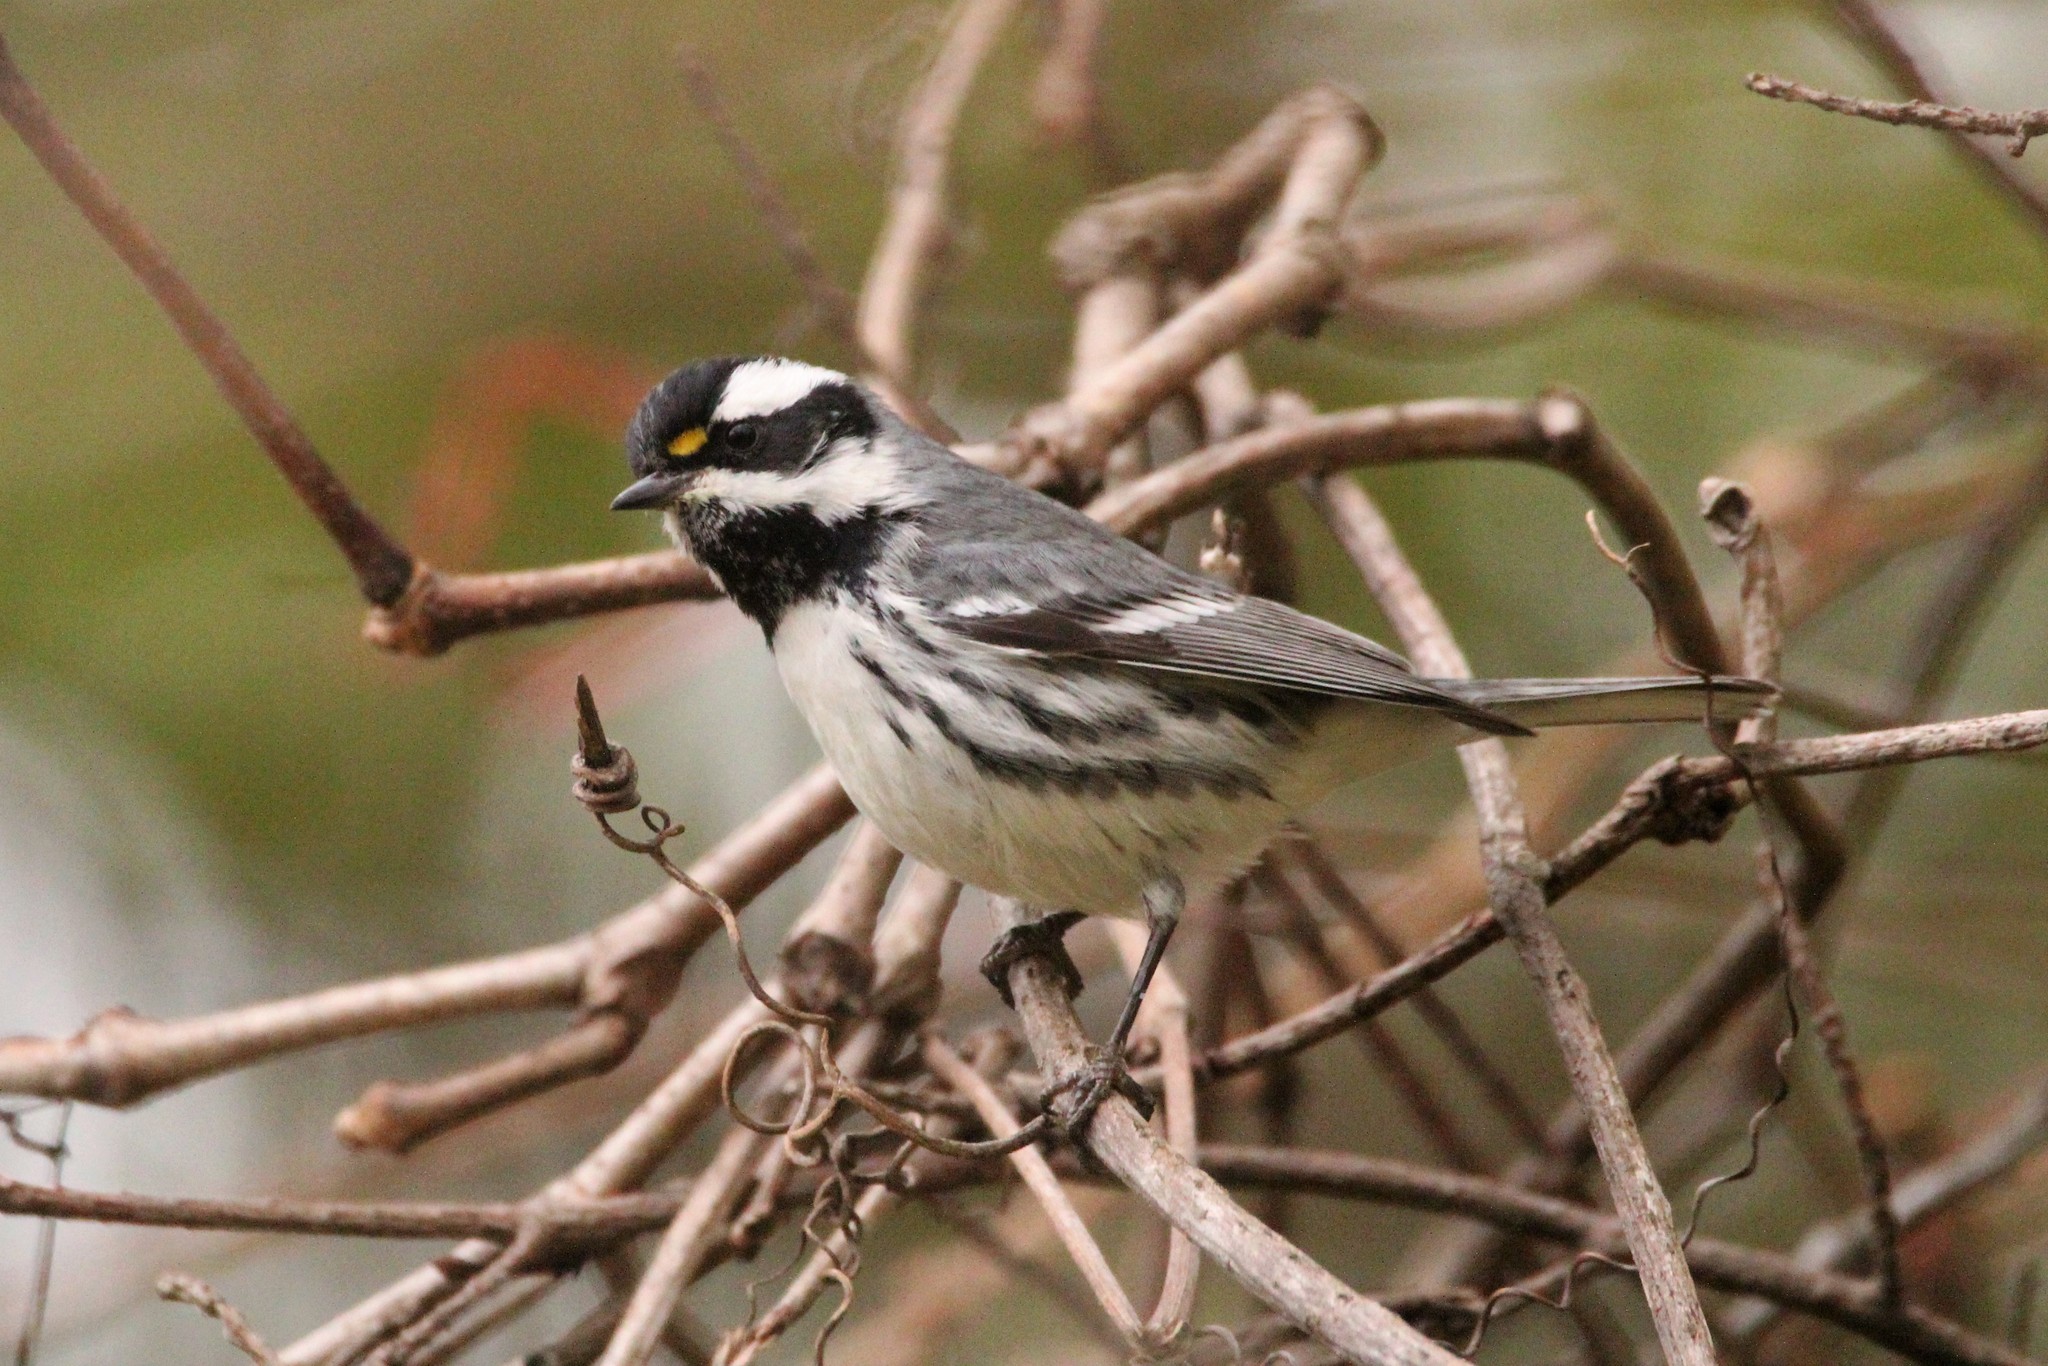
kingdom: Animalia
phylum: Chordata
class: Aves
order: Passeriformes
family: Parulidae
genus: Setophaga
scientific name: Setophaga nigrescens
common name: Black-throated gray warbler
